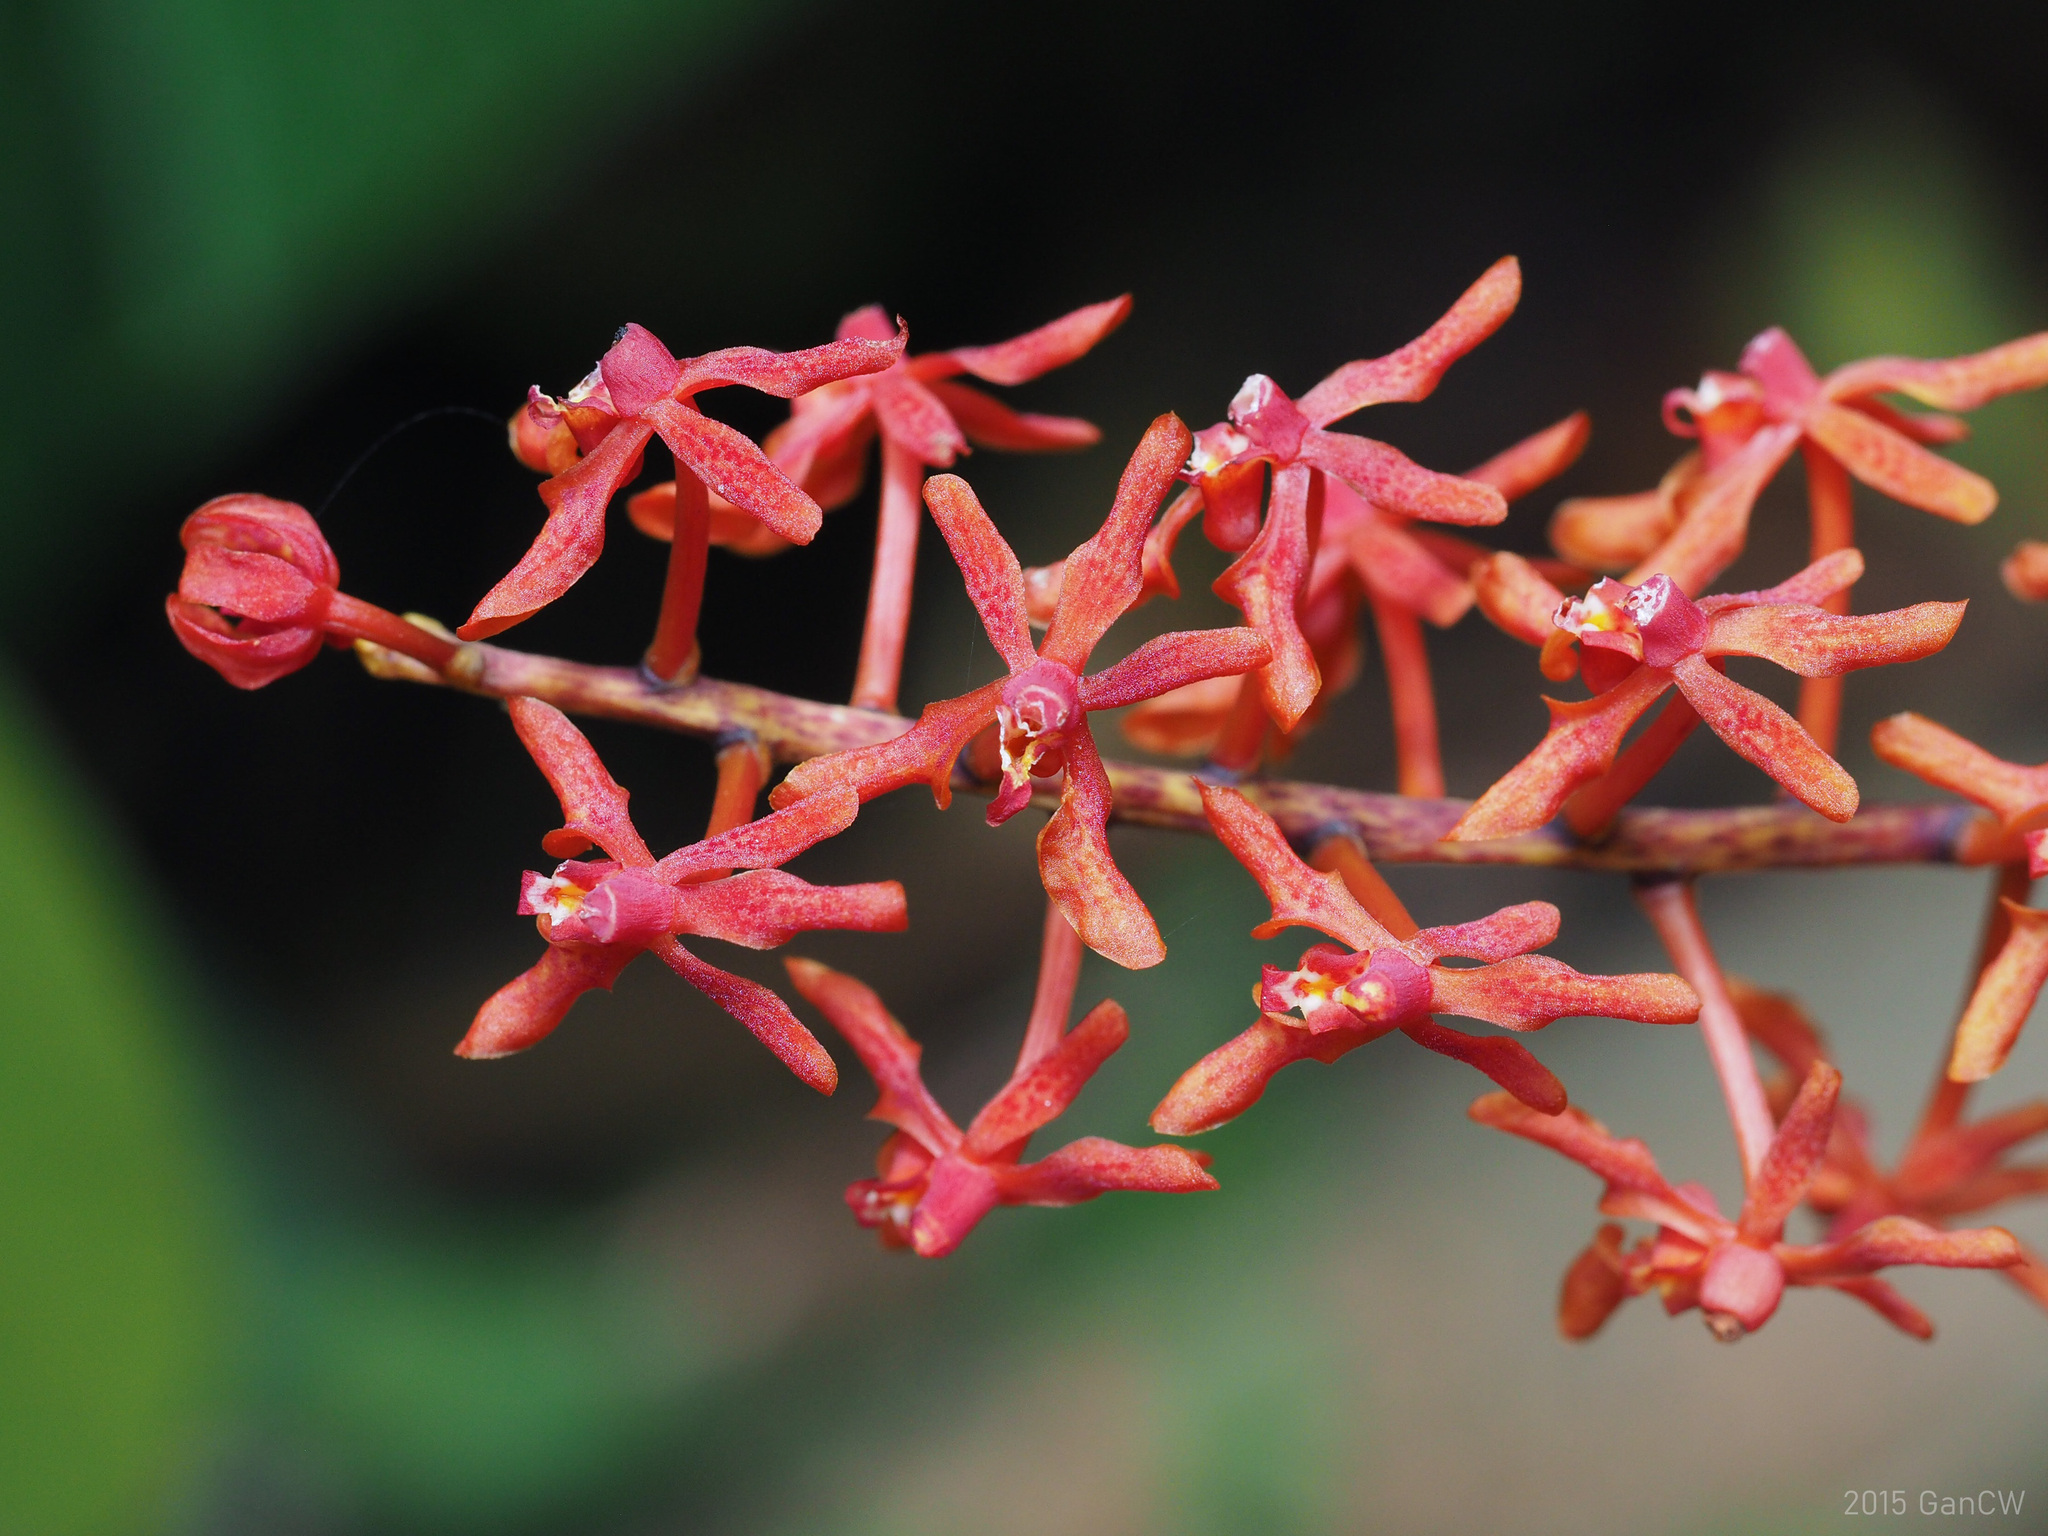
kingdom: Plantae
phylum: Tracheophyta
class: Liliopsida
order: Asparagales
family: Orchidaceae
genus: Renanthera
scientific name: Renanthera elongata
